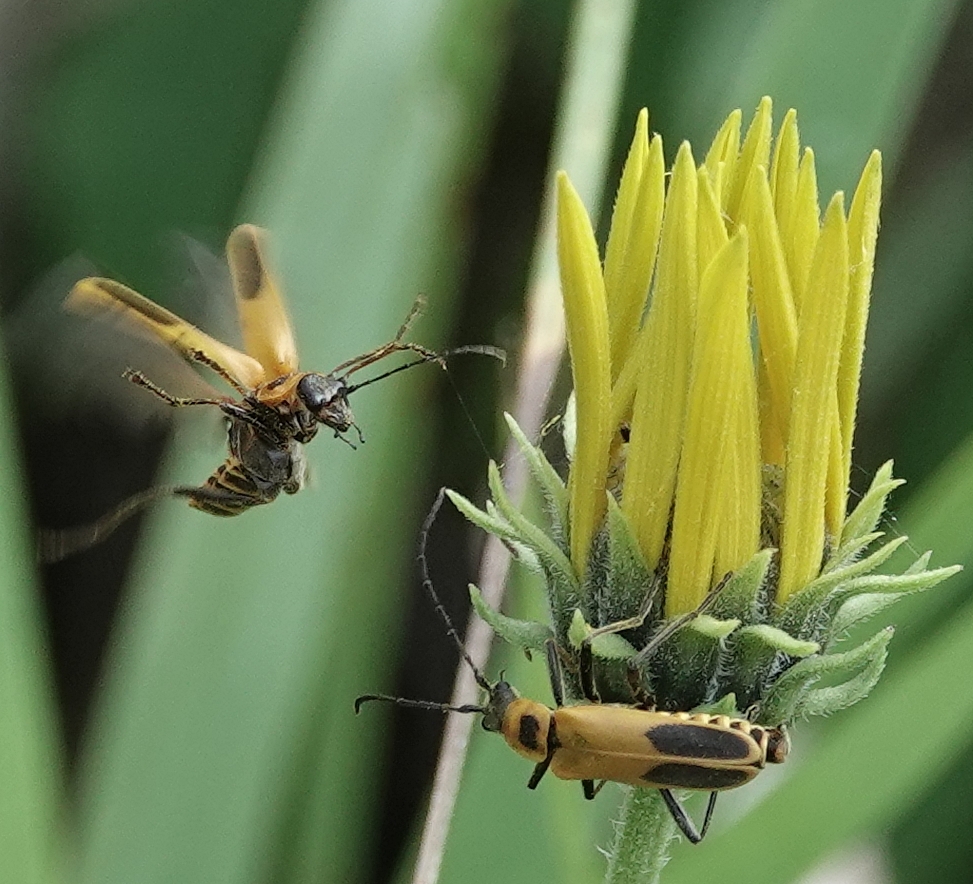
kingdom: Animalia
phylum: Arthropoda
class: Insecta
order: Coleoptera
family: Cantharidae
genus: Chauliognathus
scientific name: Chauliognathus pensylvanicus
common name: Goldenrod soldier beetle
